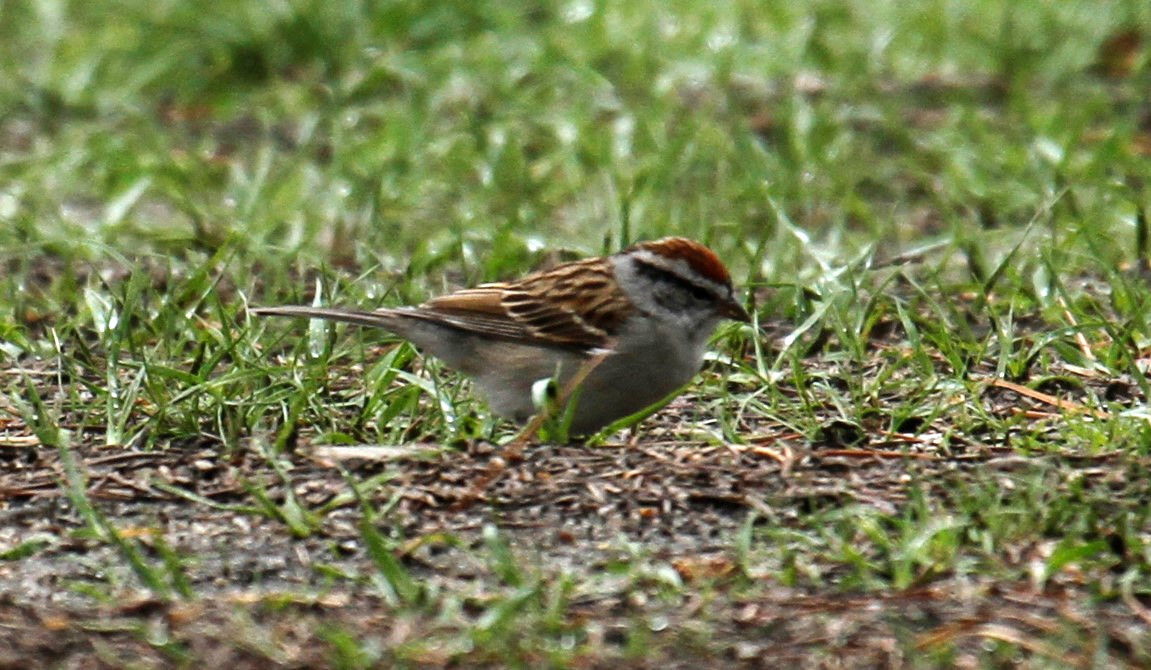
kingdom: Animalia
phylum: Chordata
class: Aves
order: Passeriformes
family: Passerellidae
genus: Spizella
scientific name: Spizella passerina
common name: Chipping sparrow
